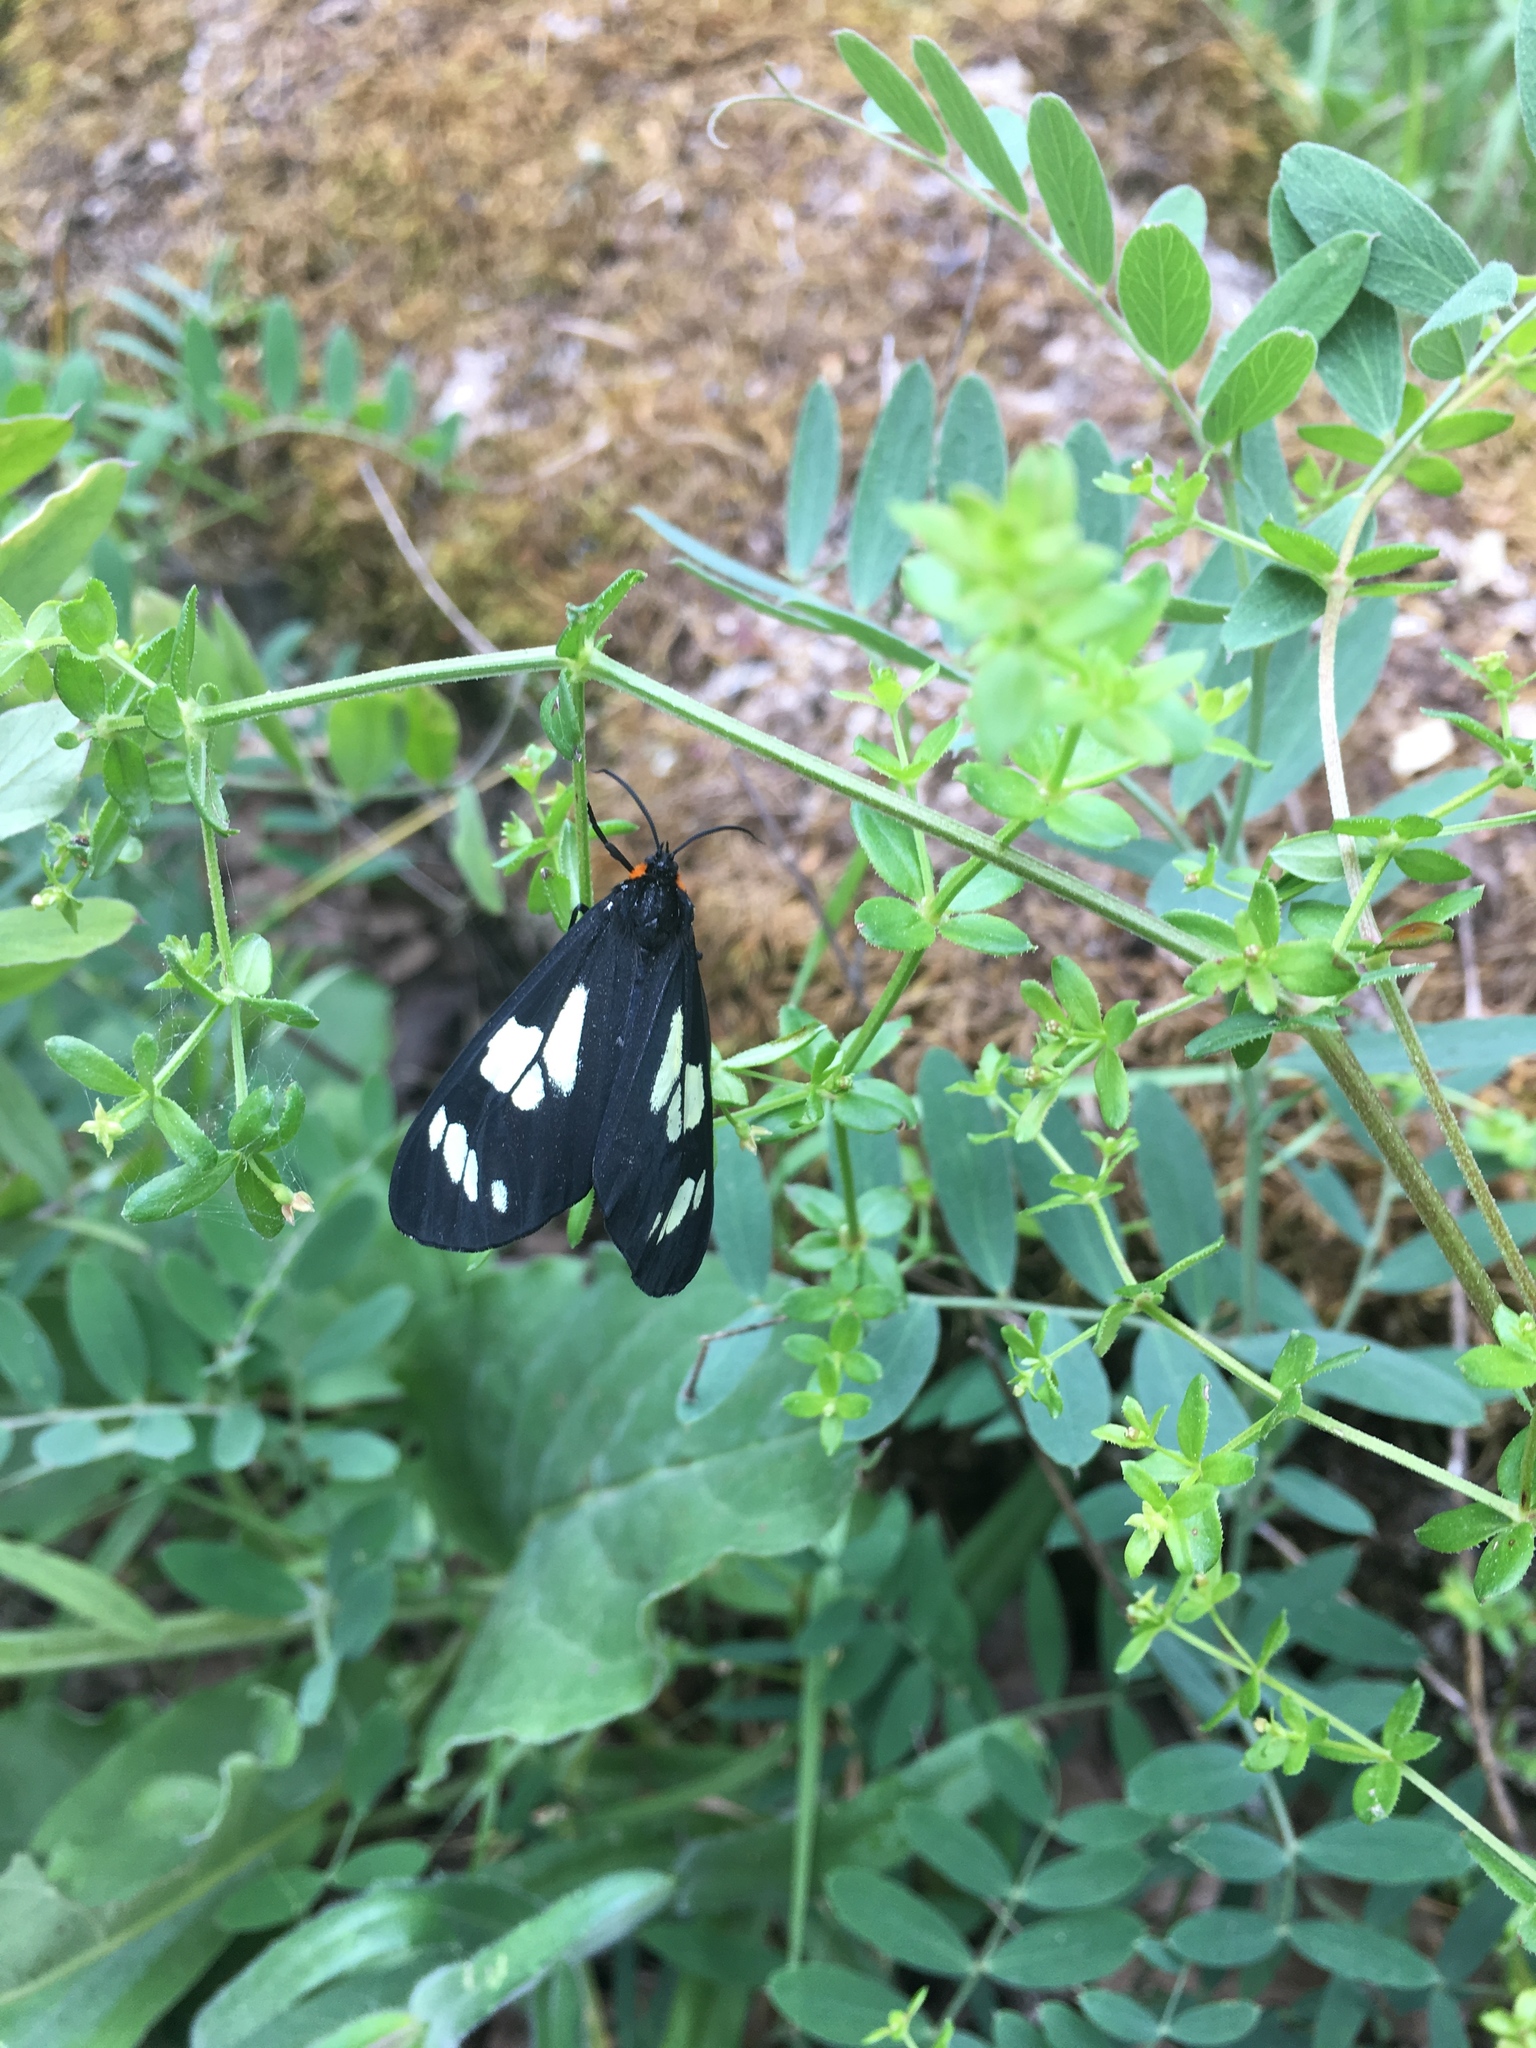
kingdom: Animalia
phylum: Arthropoda
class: Insecta
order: Lepidoptera
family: Erebidae
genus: Gnophaela
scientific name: Gnophaela latipennis
